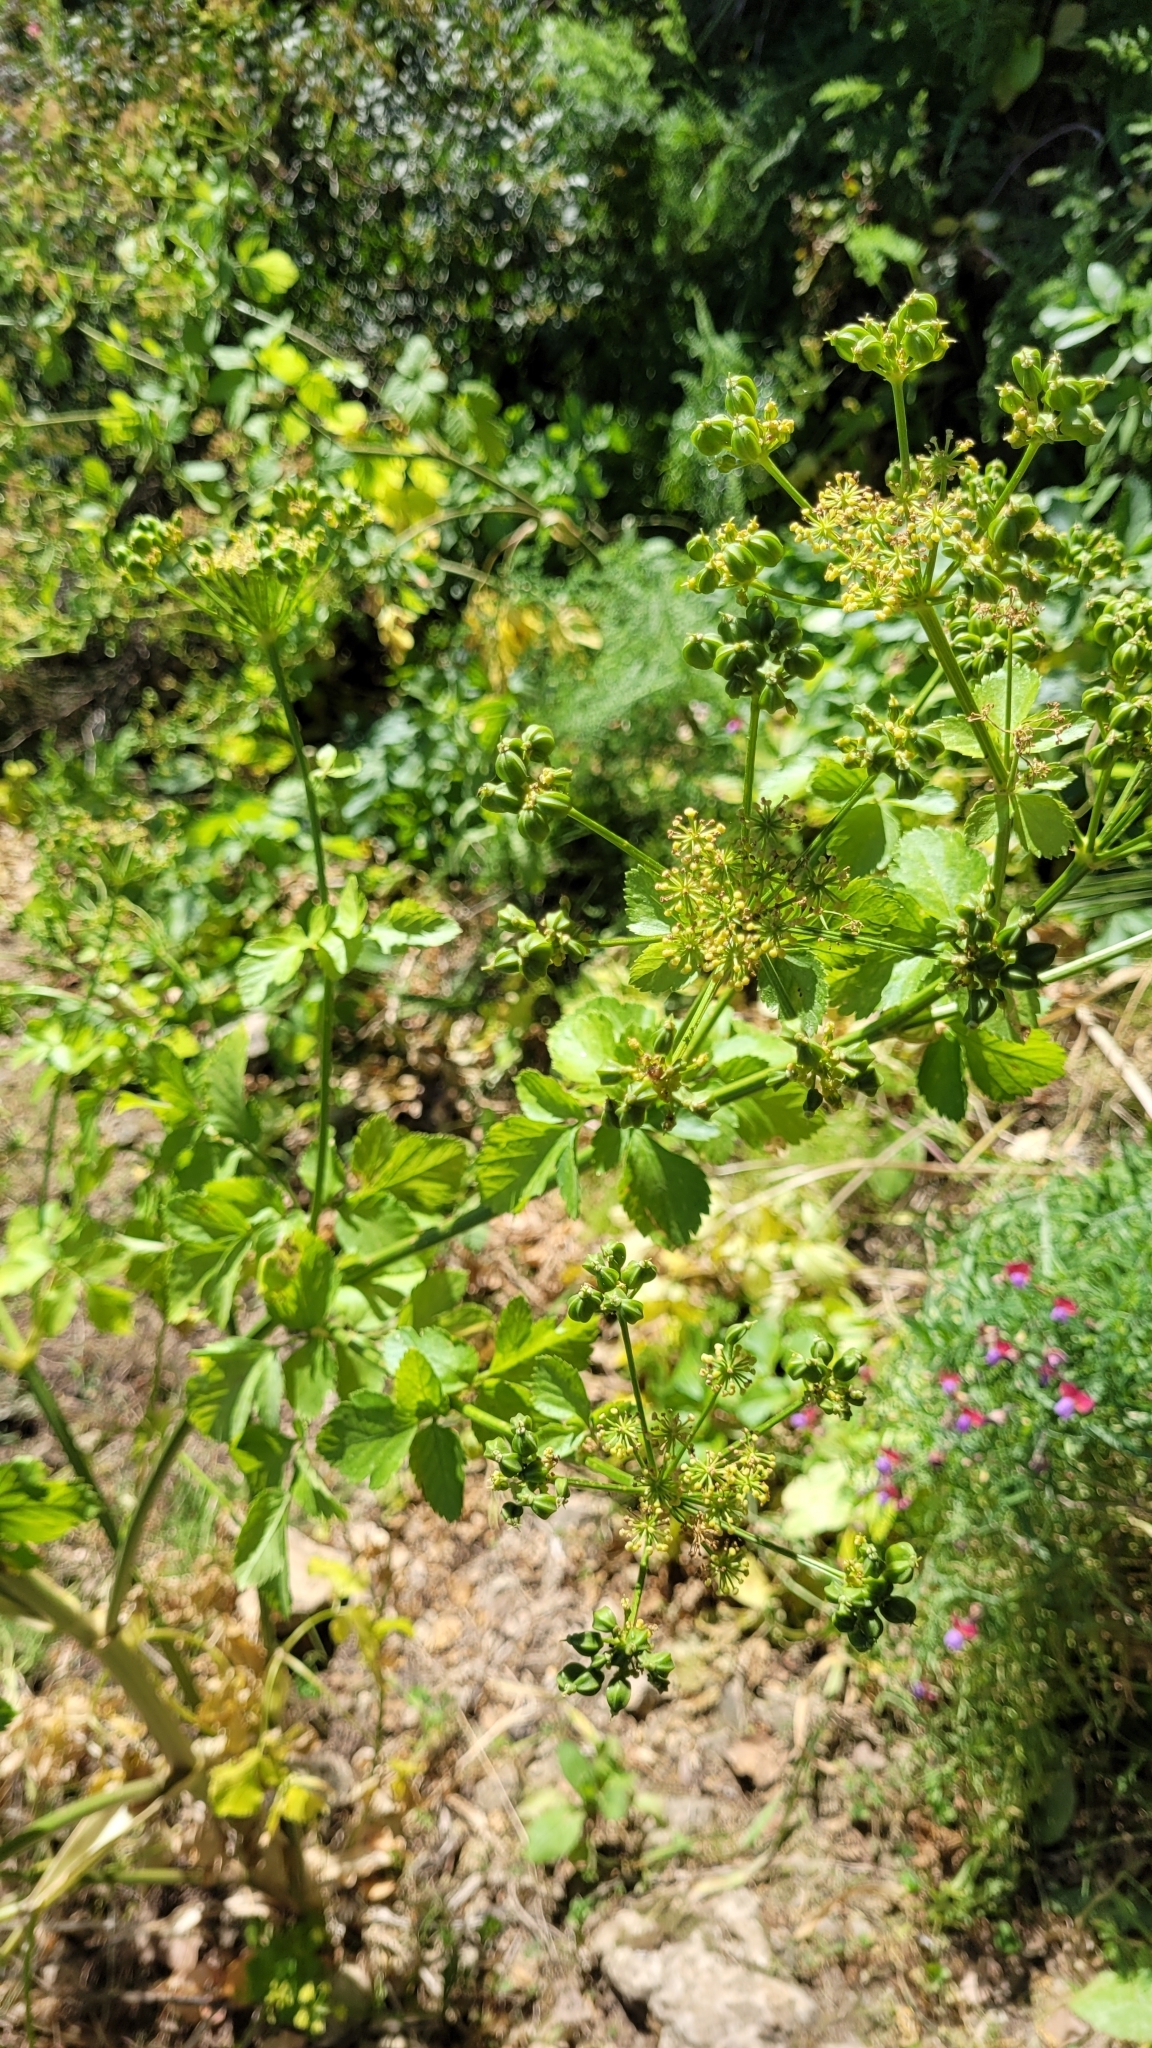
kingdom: Plantae
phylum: Tracheophyta
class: Magnoliopsida
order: Apiales
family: Apiaceae
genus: Smyrnium
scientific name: Smyrnium olusatrum
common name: Alexanders
